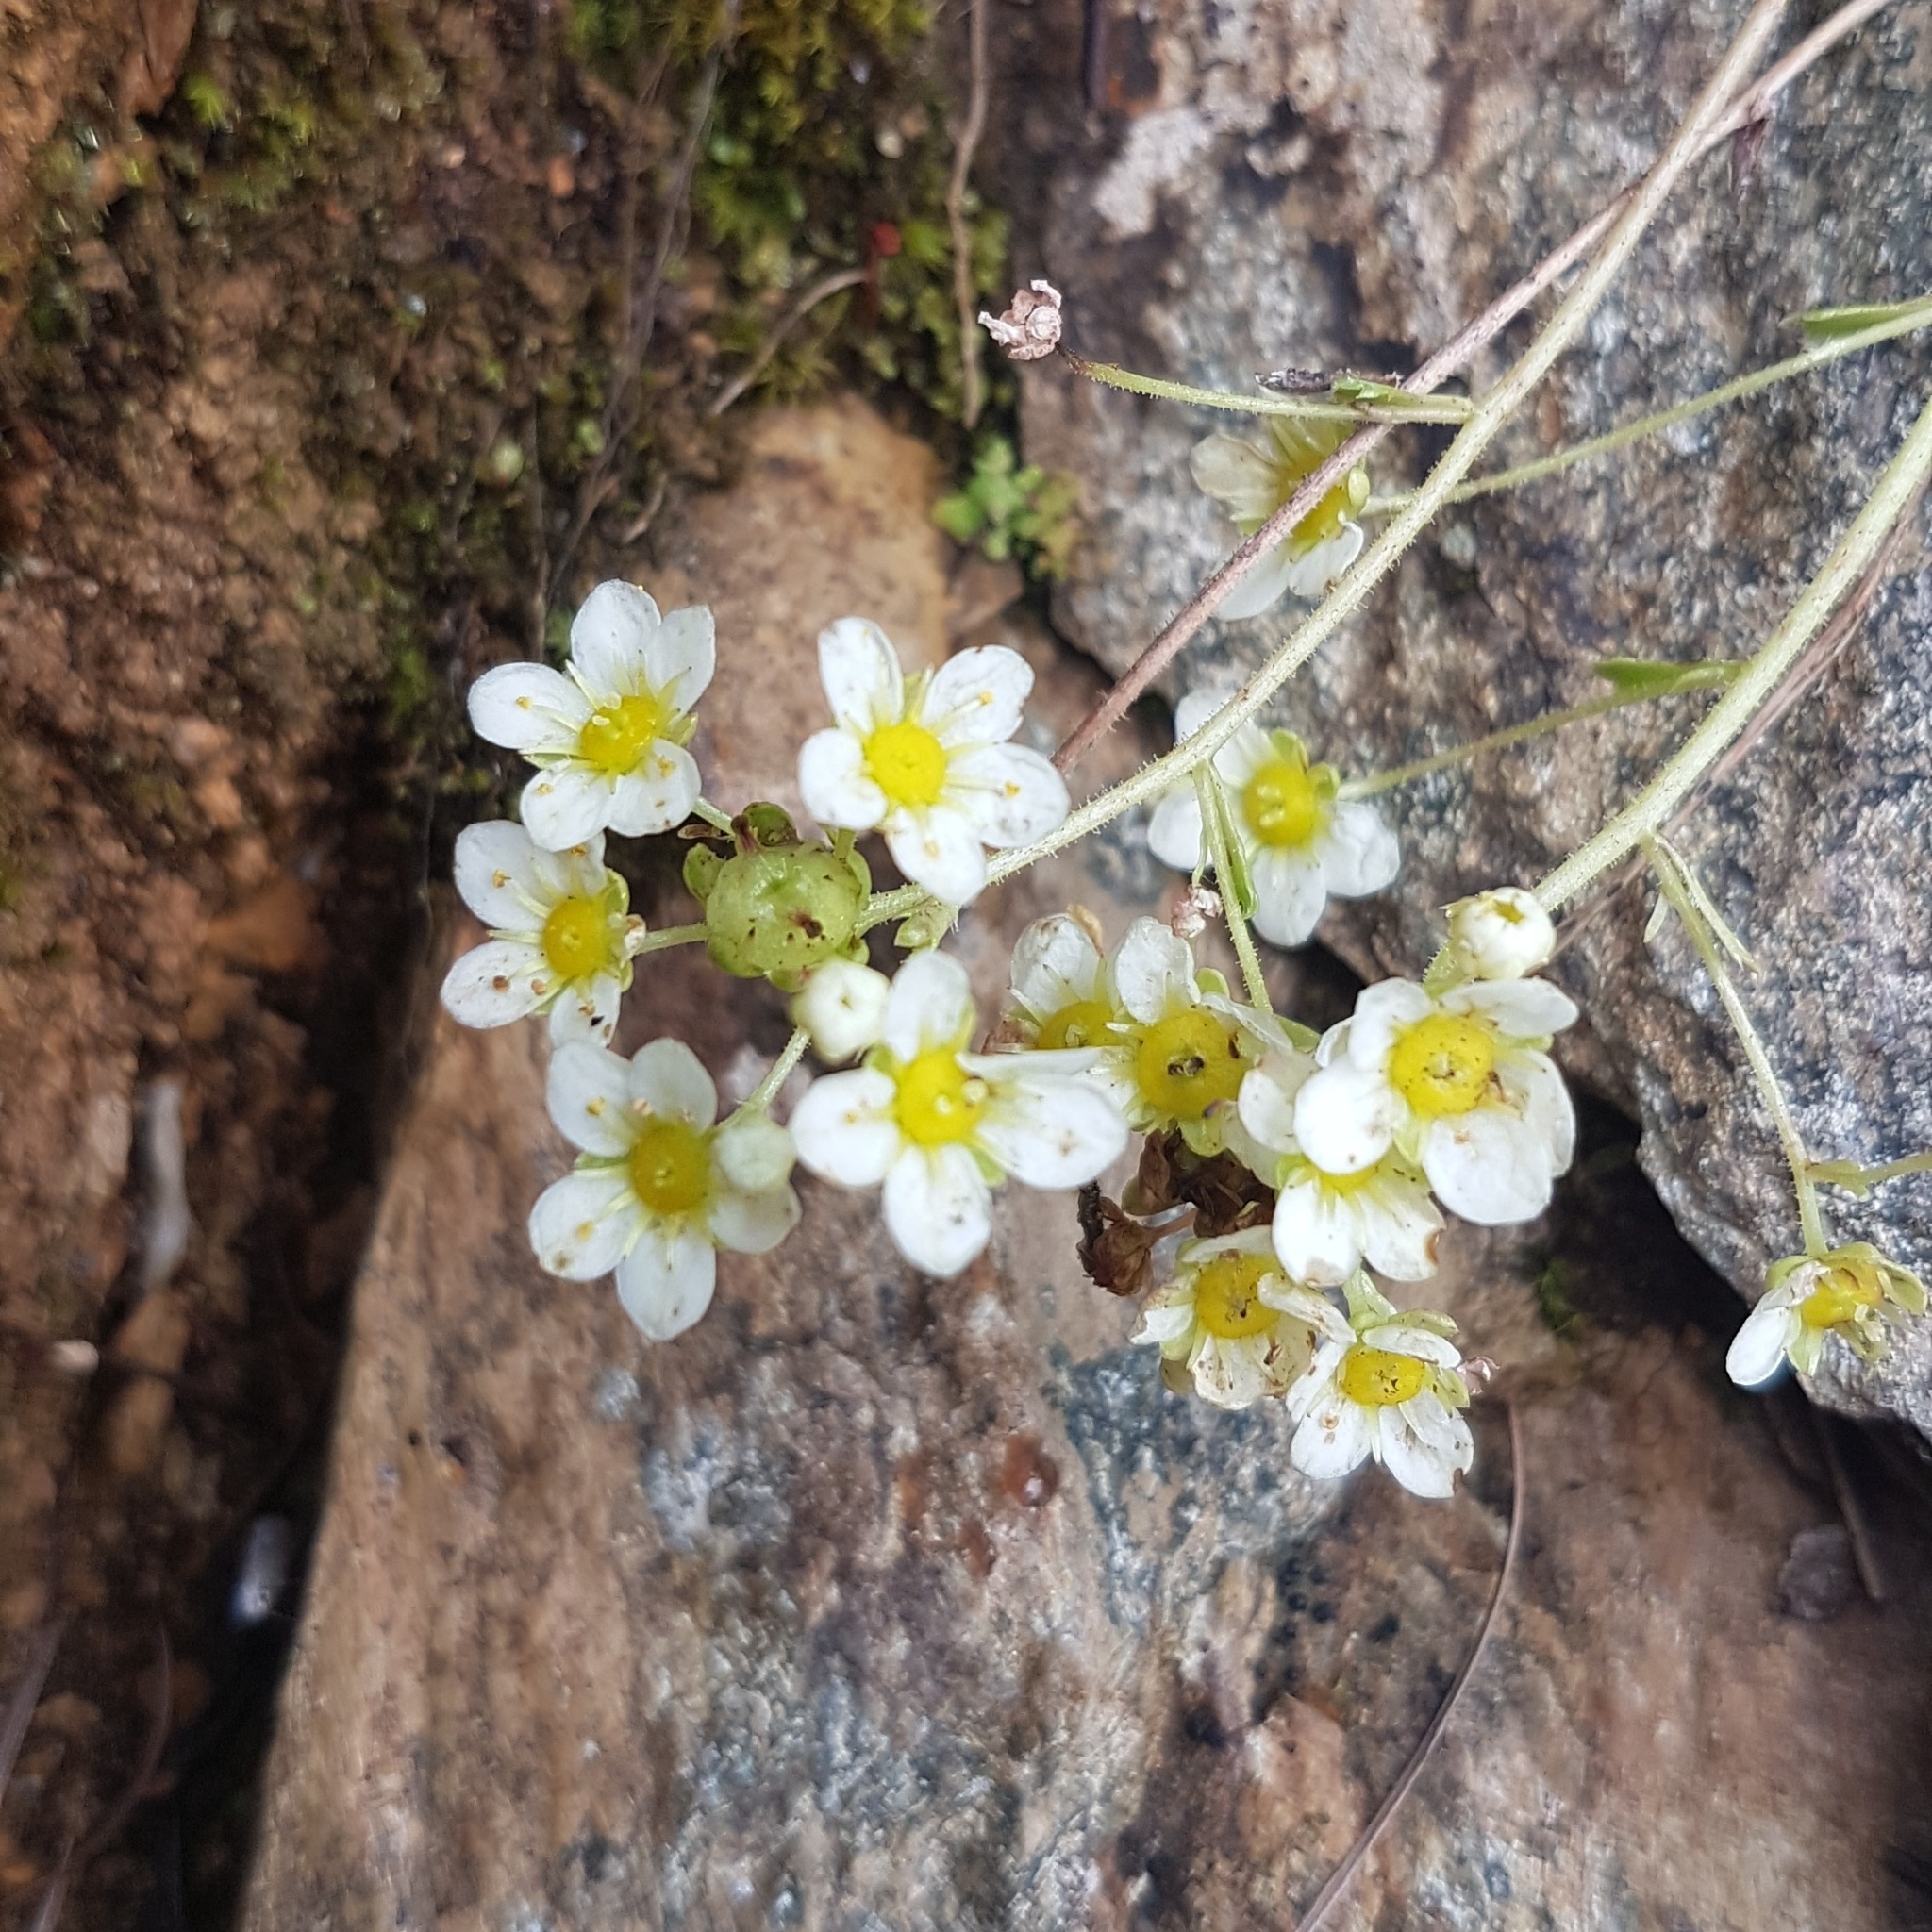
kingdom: Plantae
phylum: Tracheophyta
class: Magnoliopsida
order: Saxifragales
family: Saxifragaceae
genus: Saxifraga
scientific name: Saxifraga paniculata
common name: Livelong saxifrage
